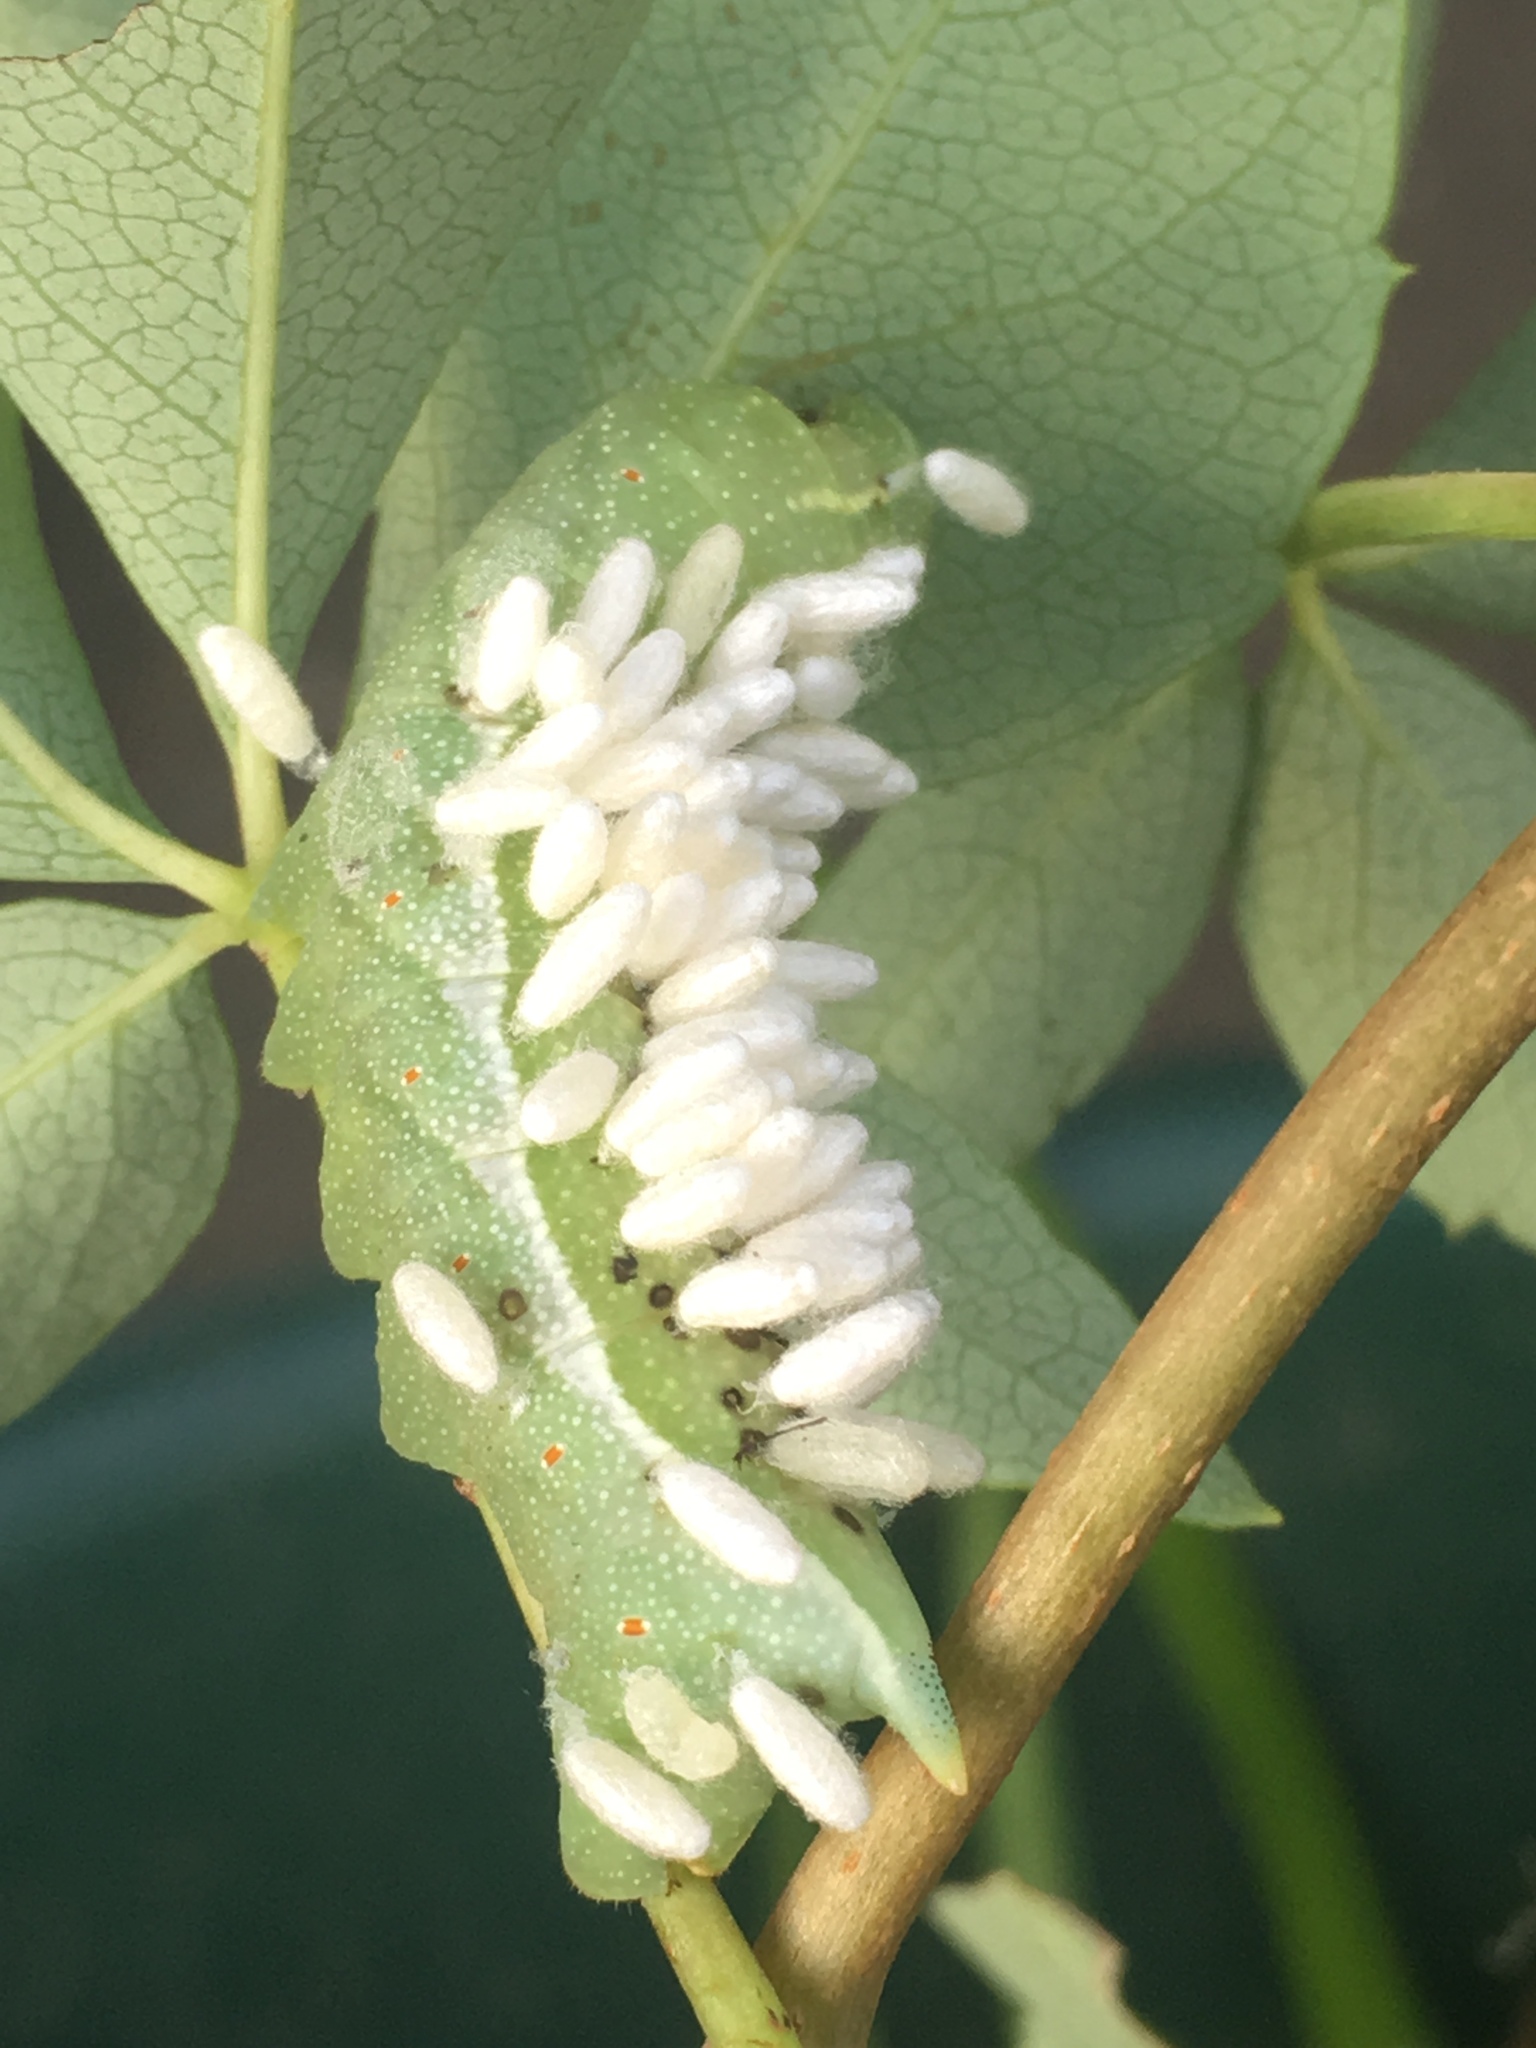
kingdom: Animalia
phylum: Arthropoda
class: Insecta
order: Hymenoptera
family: Braconidae
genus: Cotesia
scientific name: Cotesia congregata
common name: Hornworm parasitoid wasp
